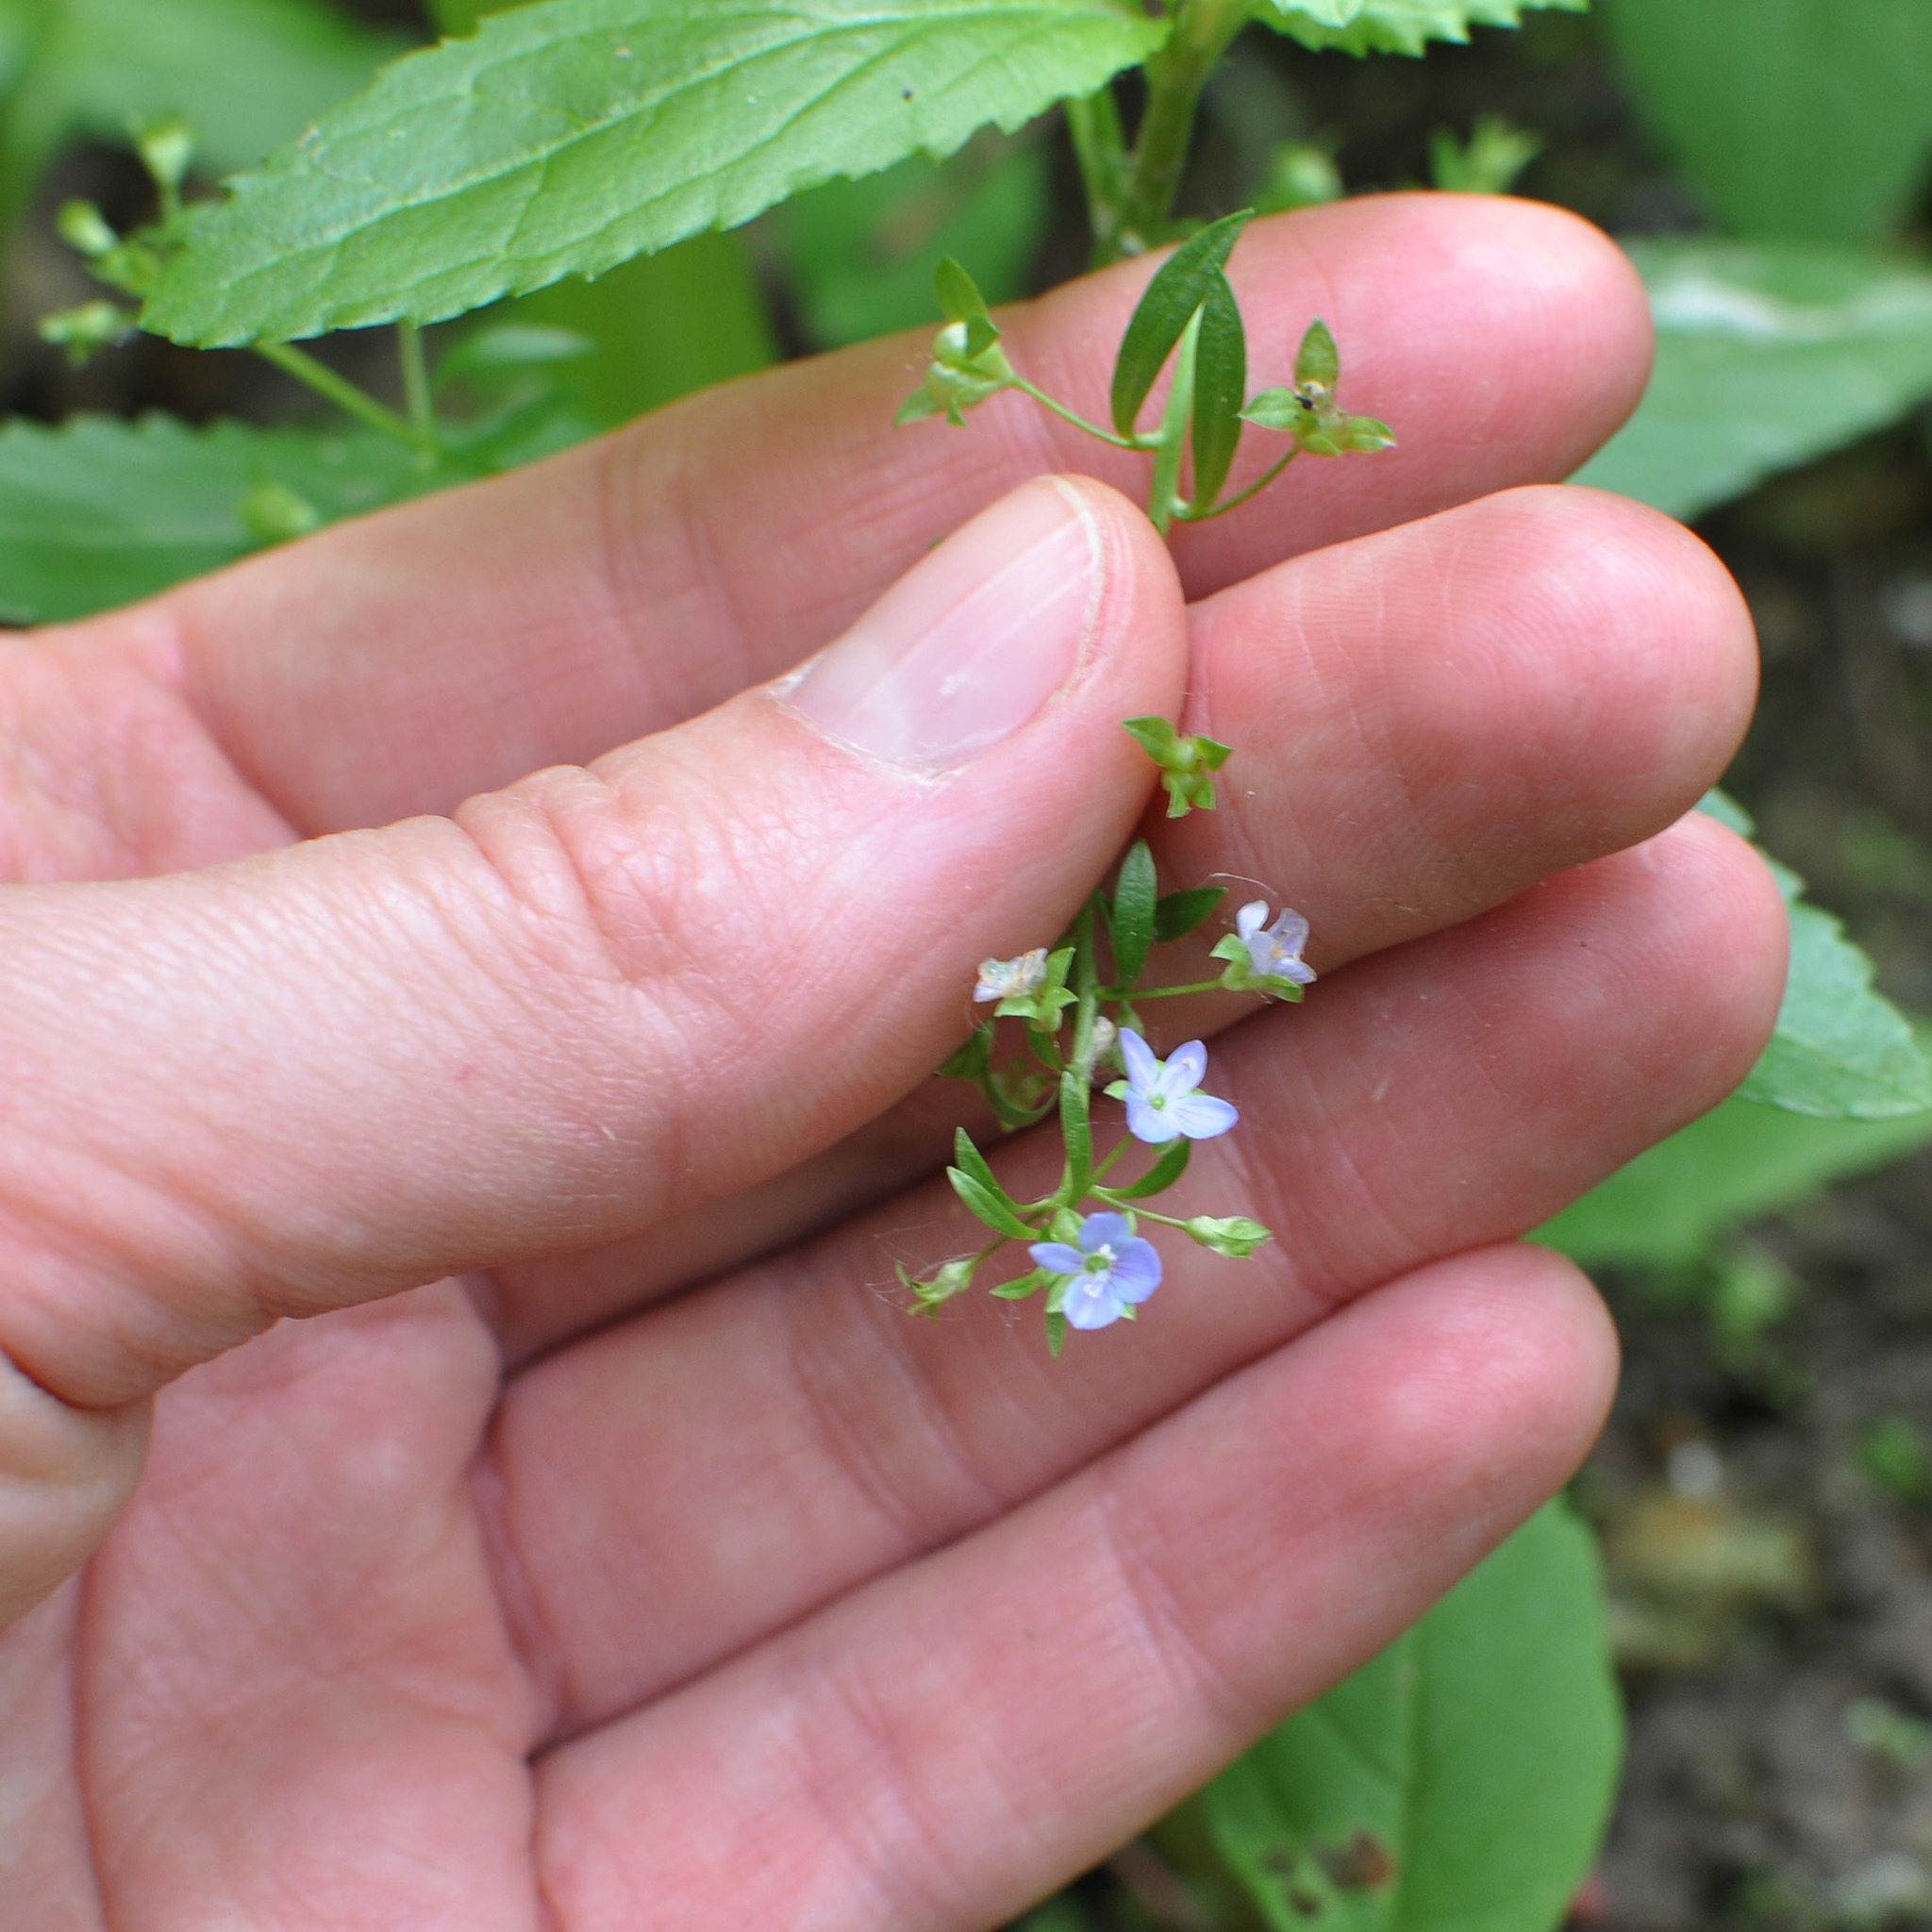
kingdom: Plantae
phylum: Tracheophyta
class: Magnoliopsida
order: Lamiales
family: Plantaginaceae
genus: Veronica
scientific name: Veronica beccabunga
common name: Brooklime
